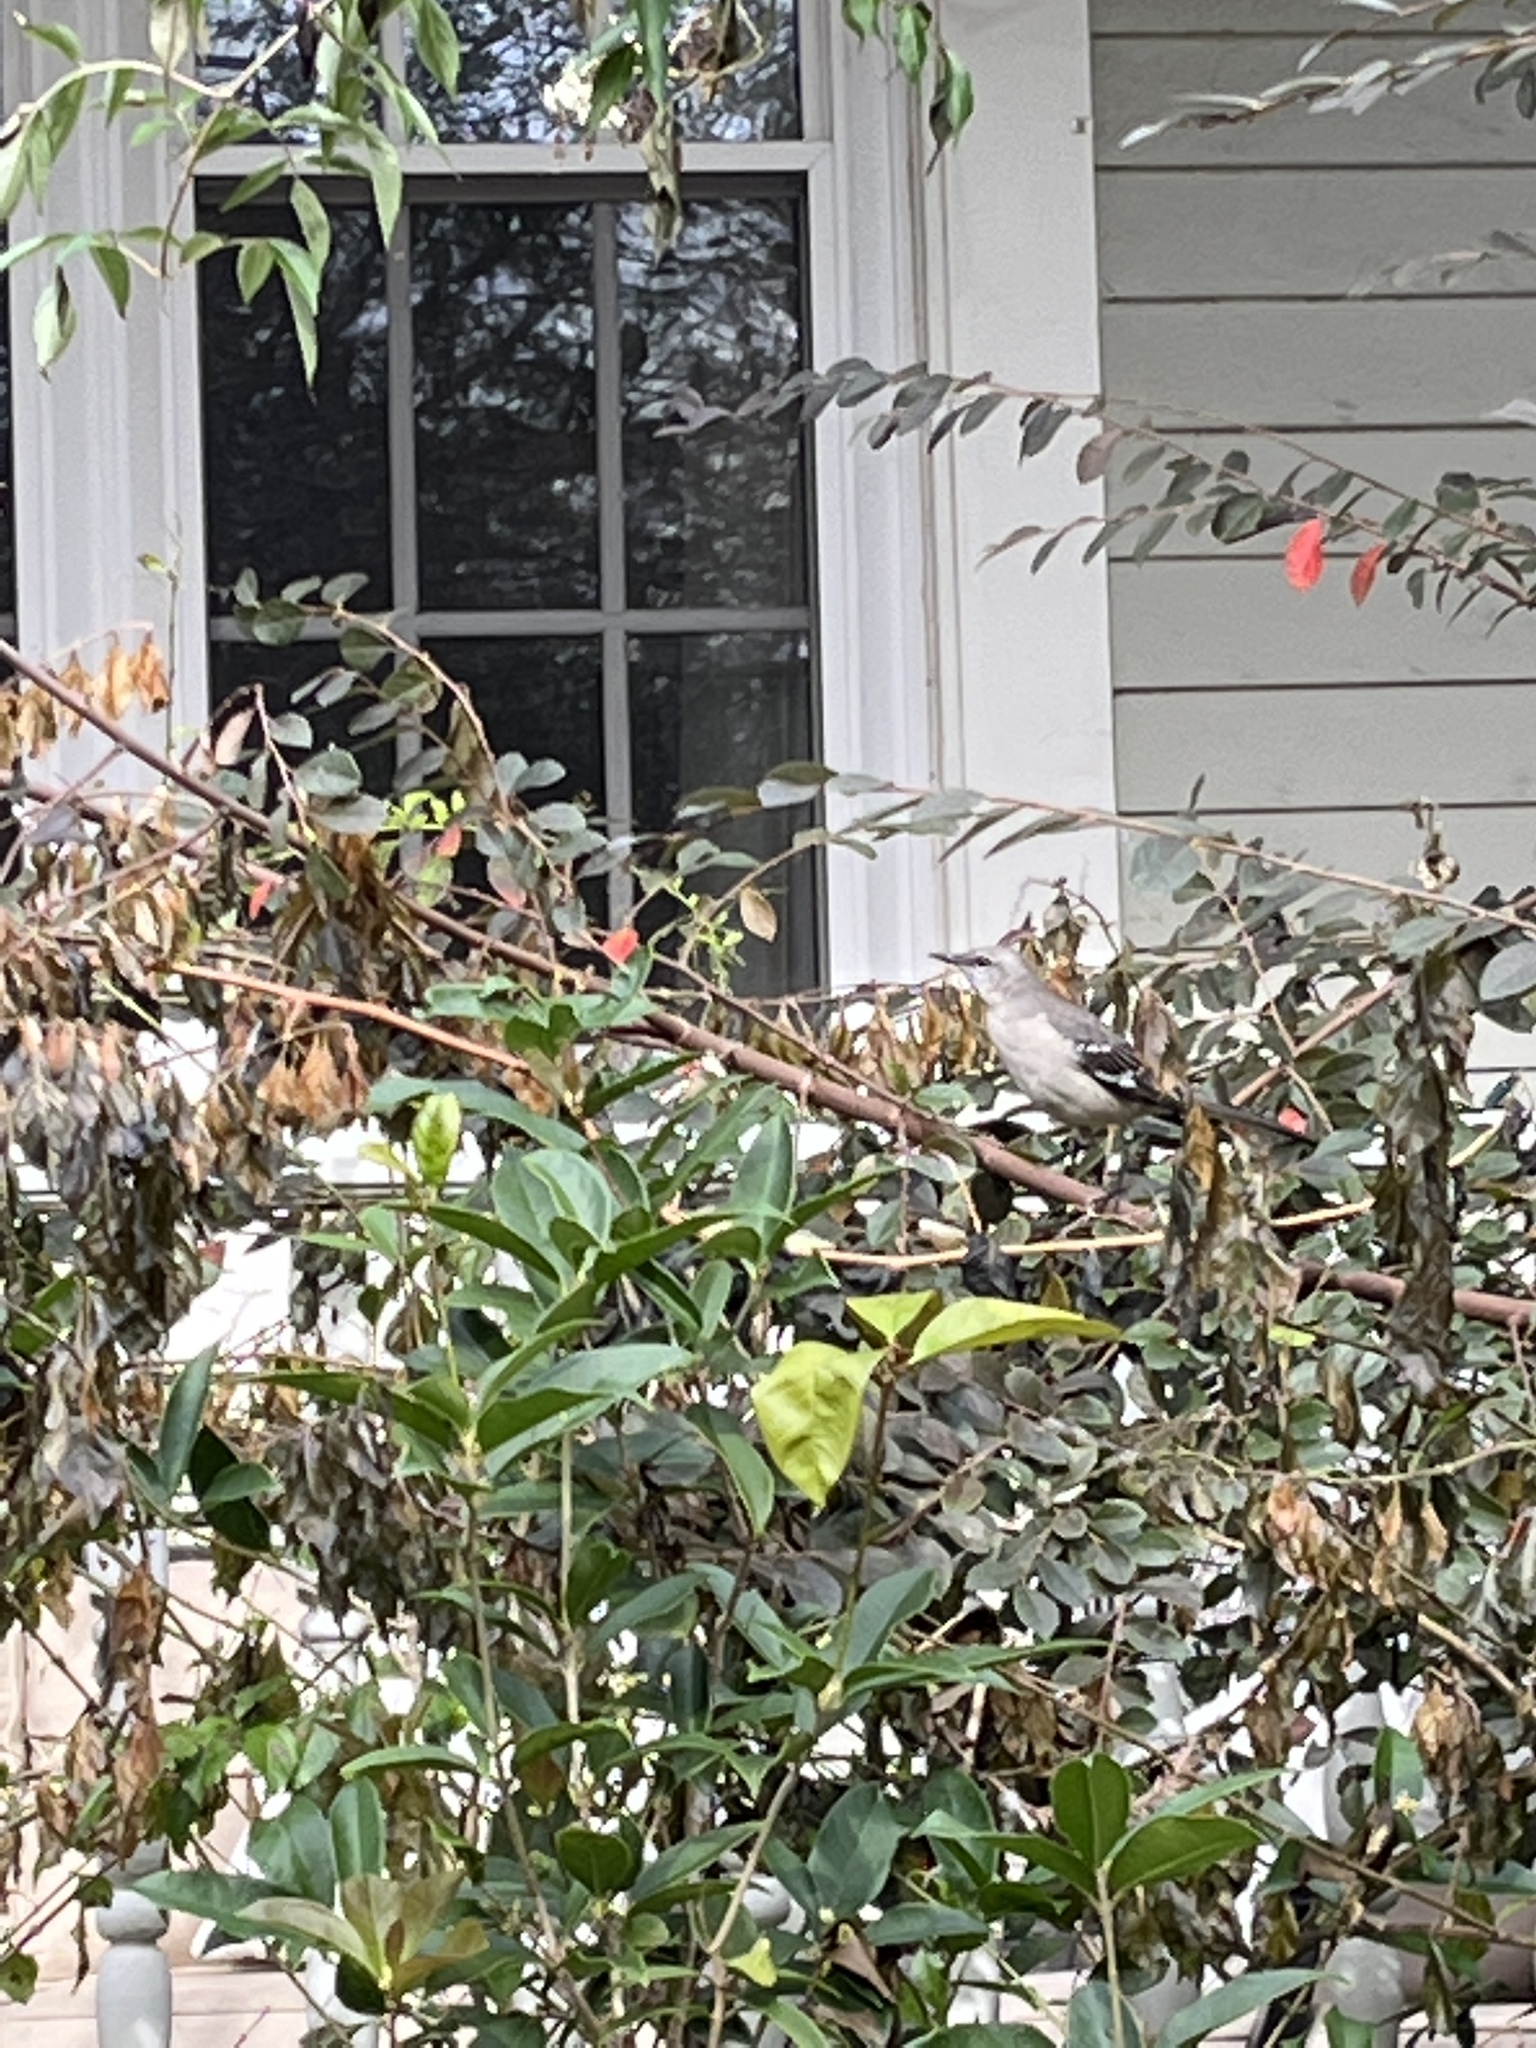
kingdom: Animalia
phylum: Chordata
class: Aves
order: Passeriformes
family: Mimidae
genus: Mimus
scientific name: Mimus polyglottos
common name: Northern mockingbird
